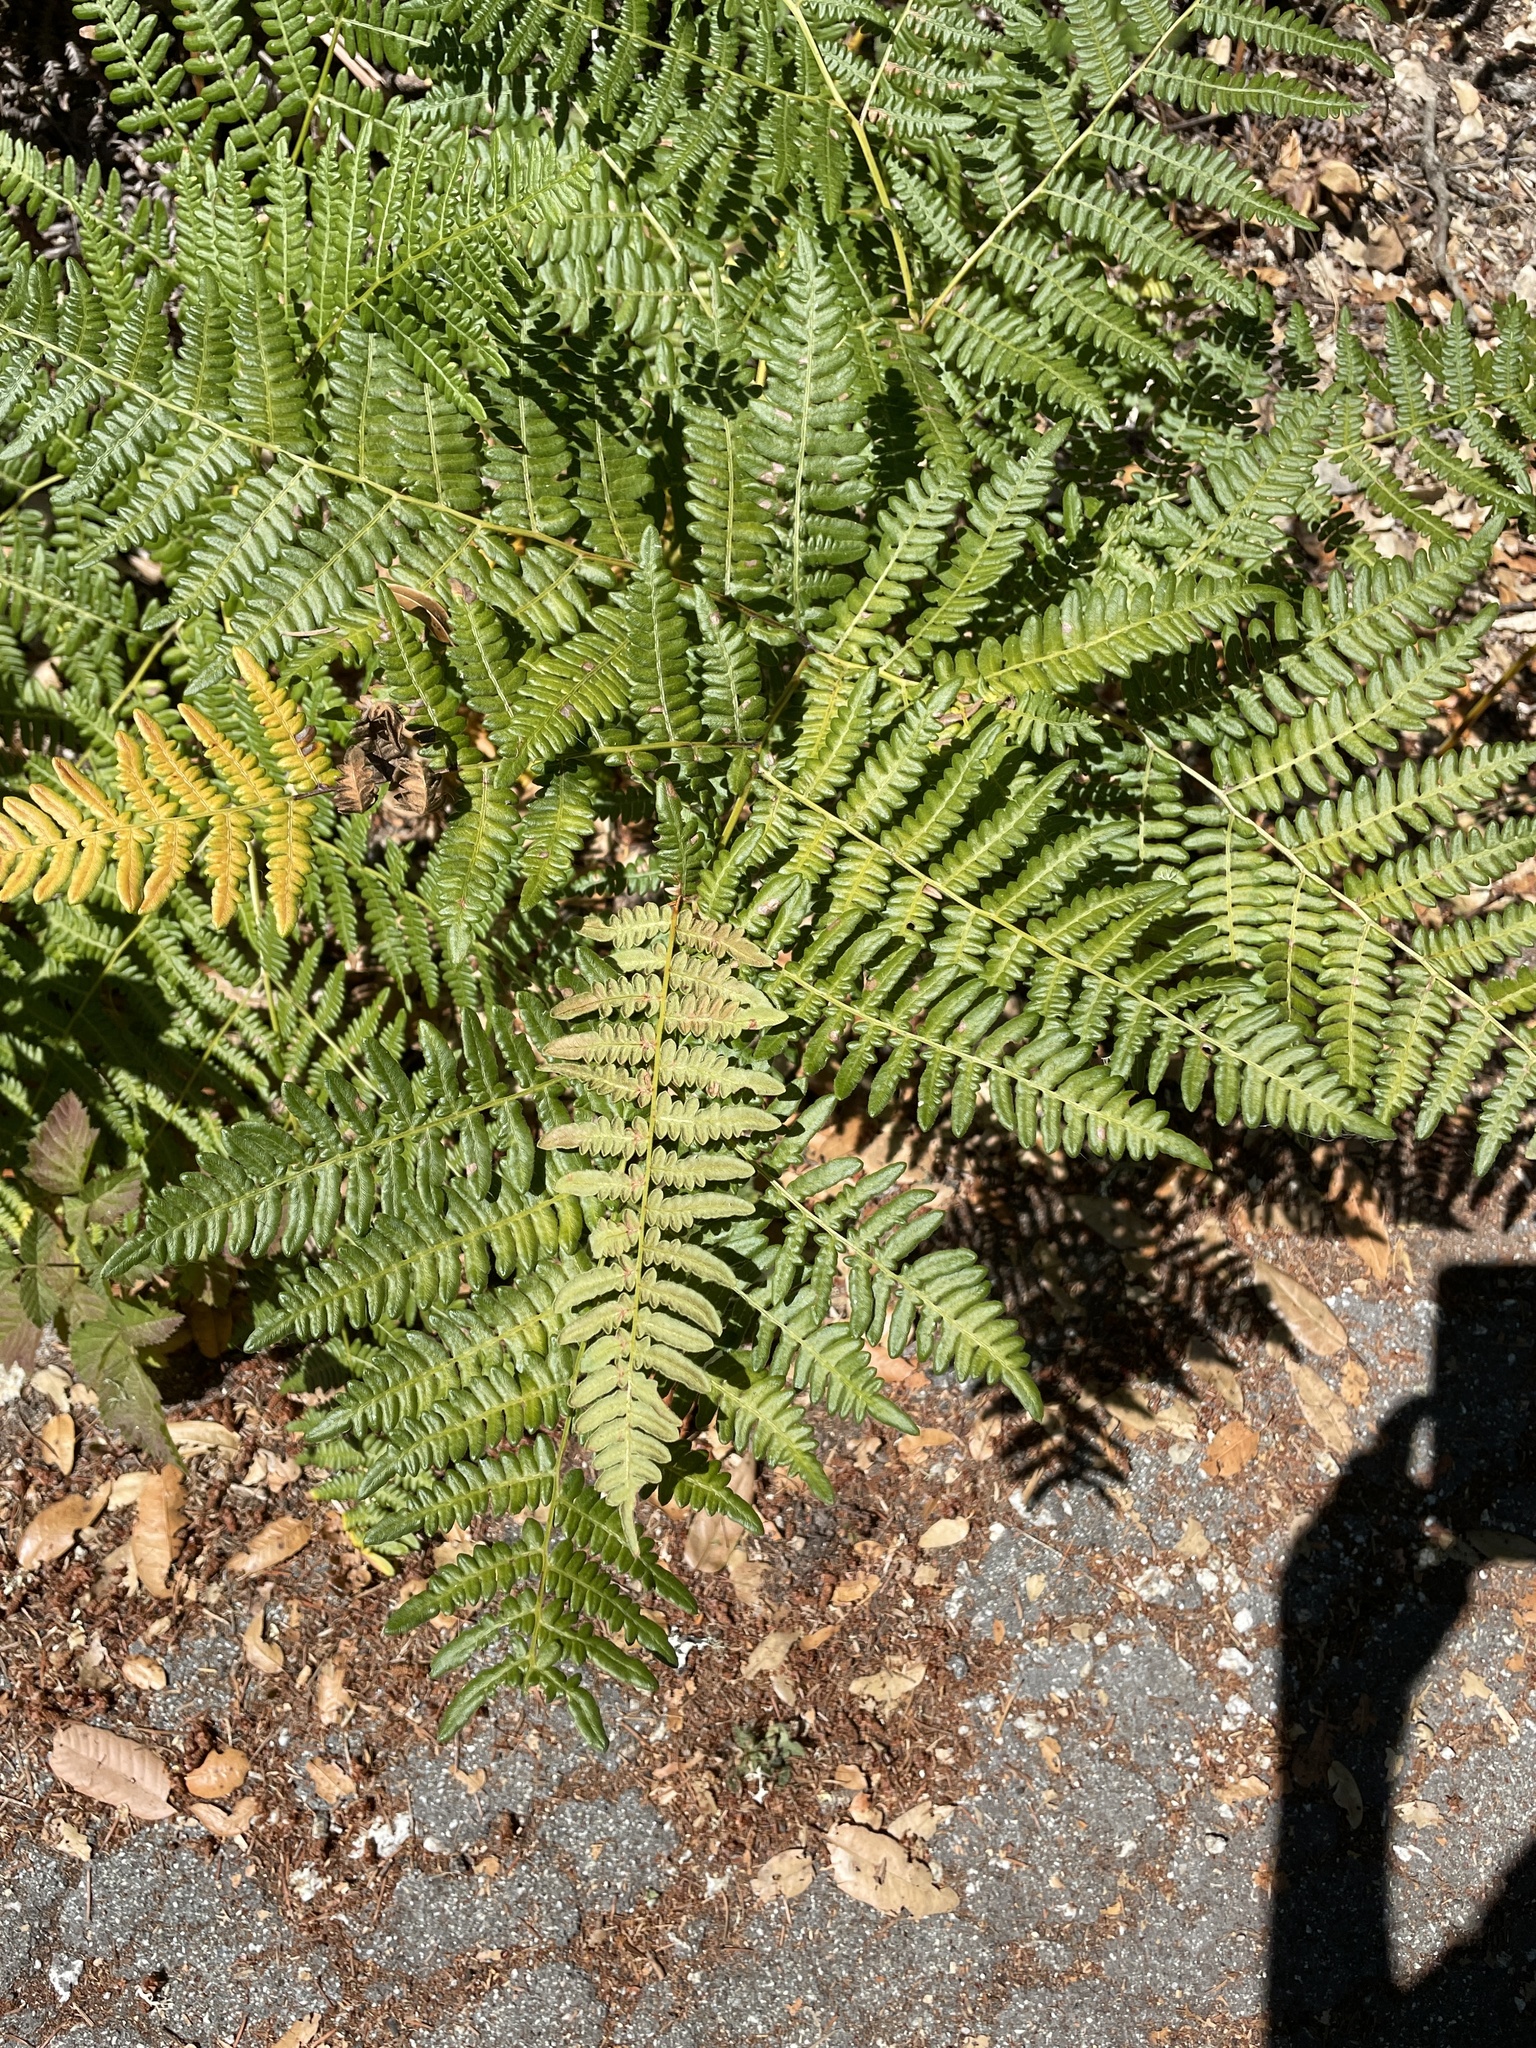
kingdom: Plantae
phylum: Tracheophyta
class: Polypodiopsida
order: Polypodiales
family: Dennstaedtiaceae
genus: Pteridium
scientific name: Pteridium aquilinum
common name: Bracken
